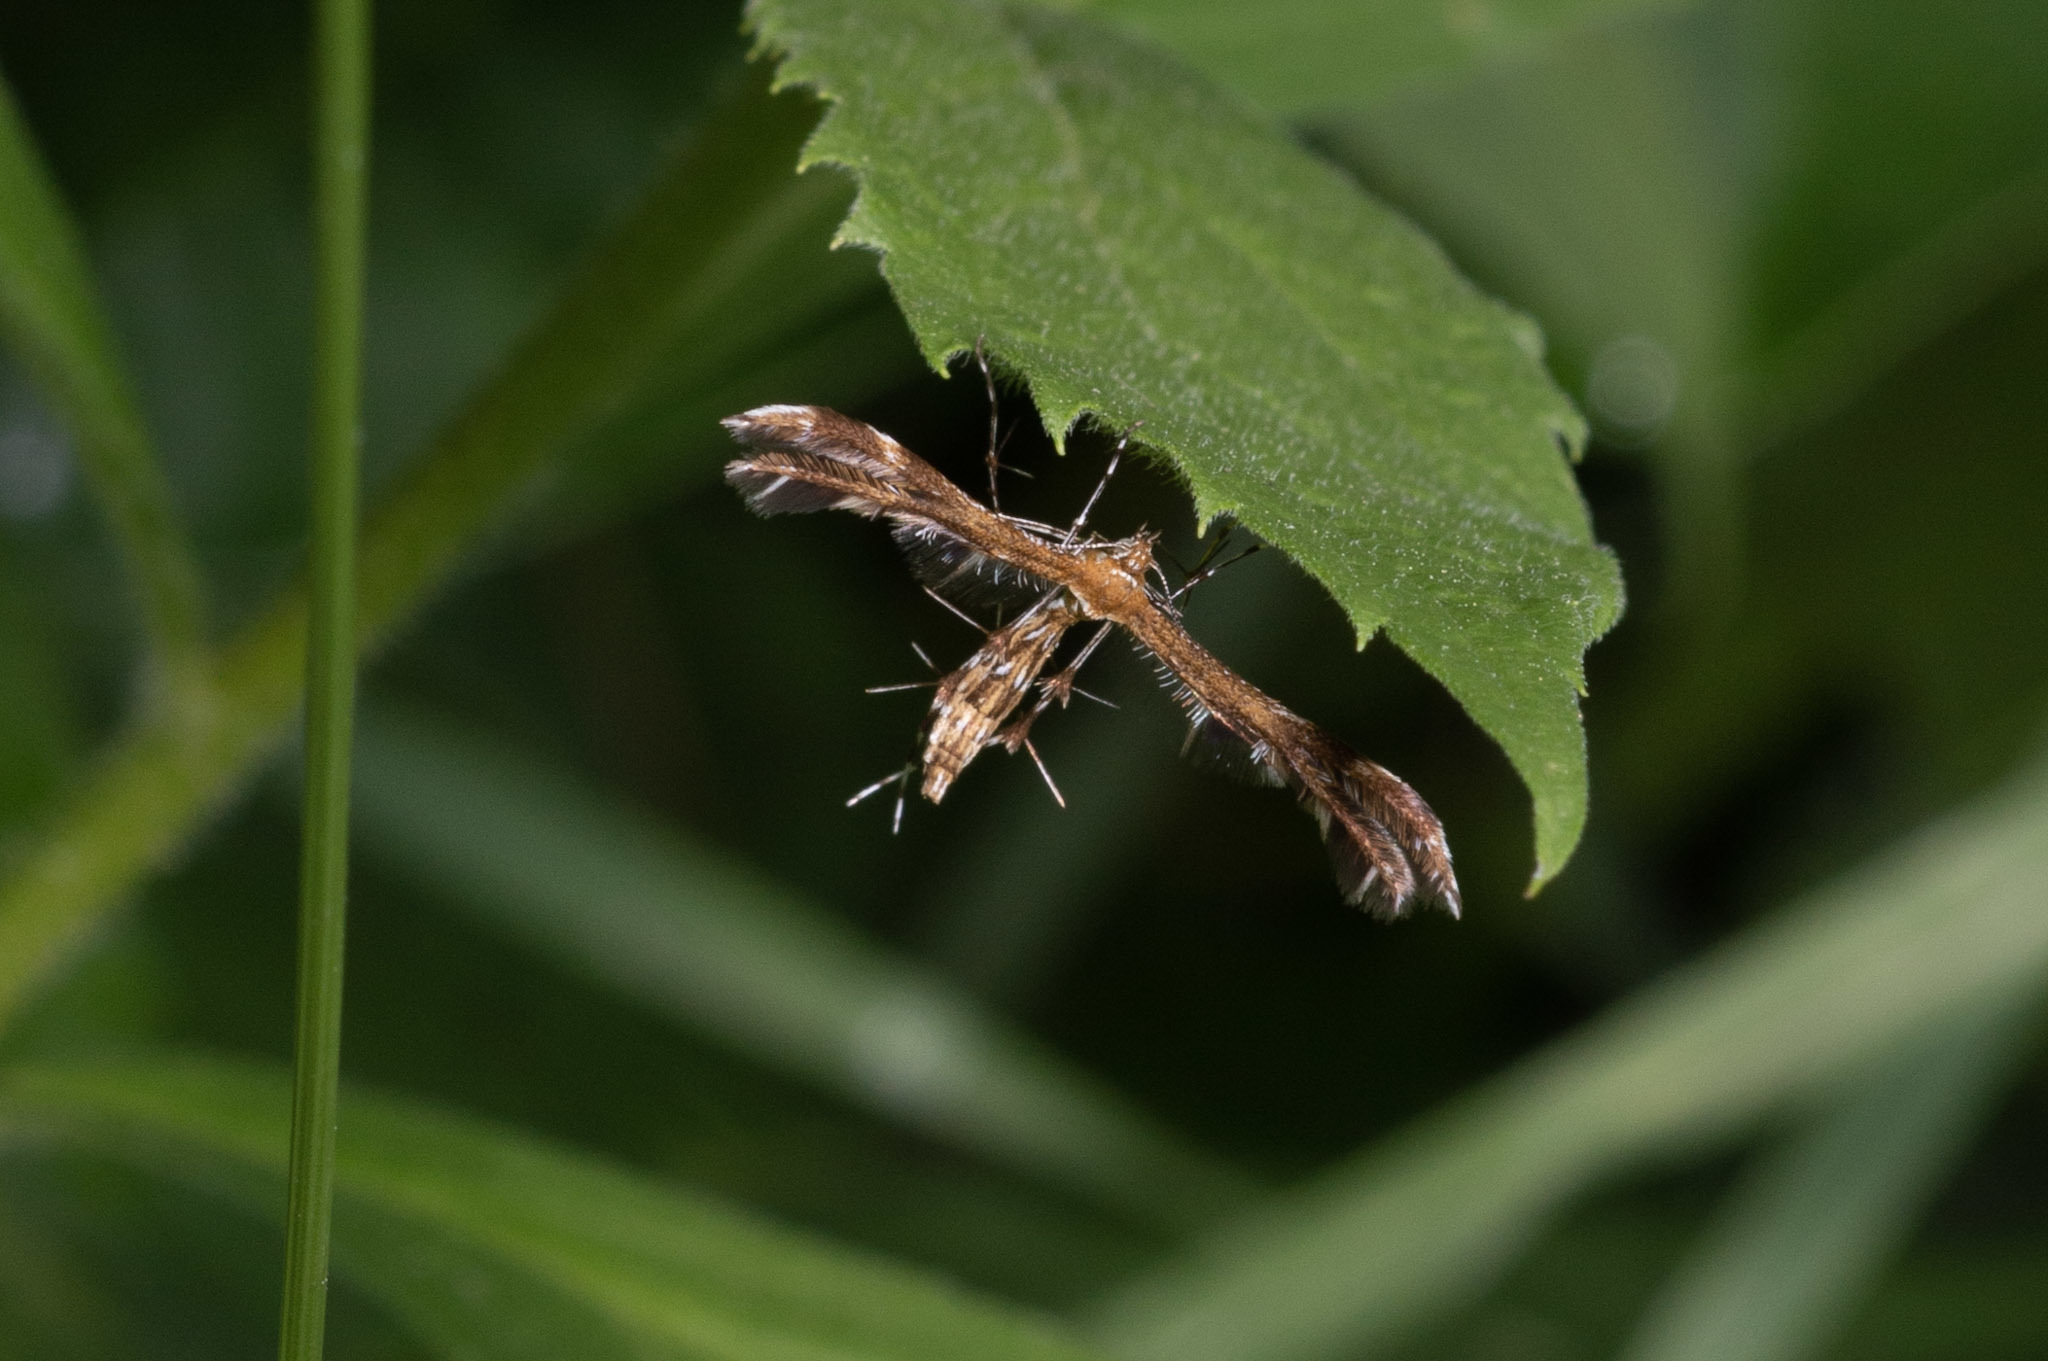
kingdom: Animalia
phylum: Arthropoda
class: Insecta
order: Lepidoptera
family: Pterophoridae
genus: Dejongia
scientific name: Dejongia lobidactylus
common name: Lobed plume moth
